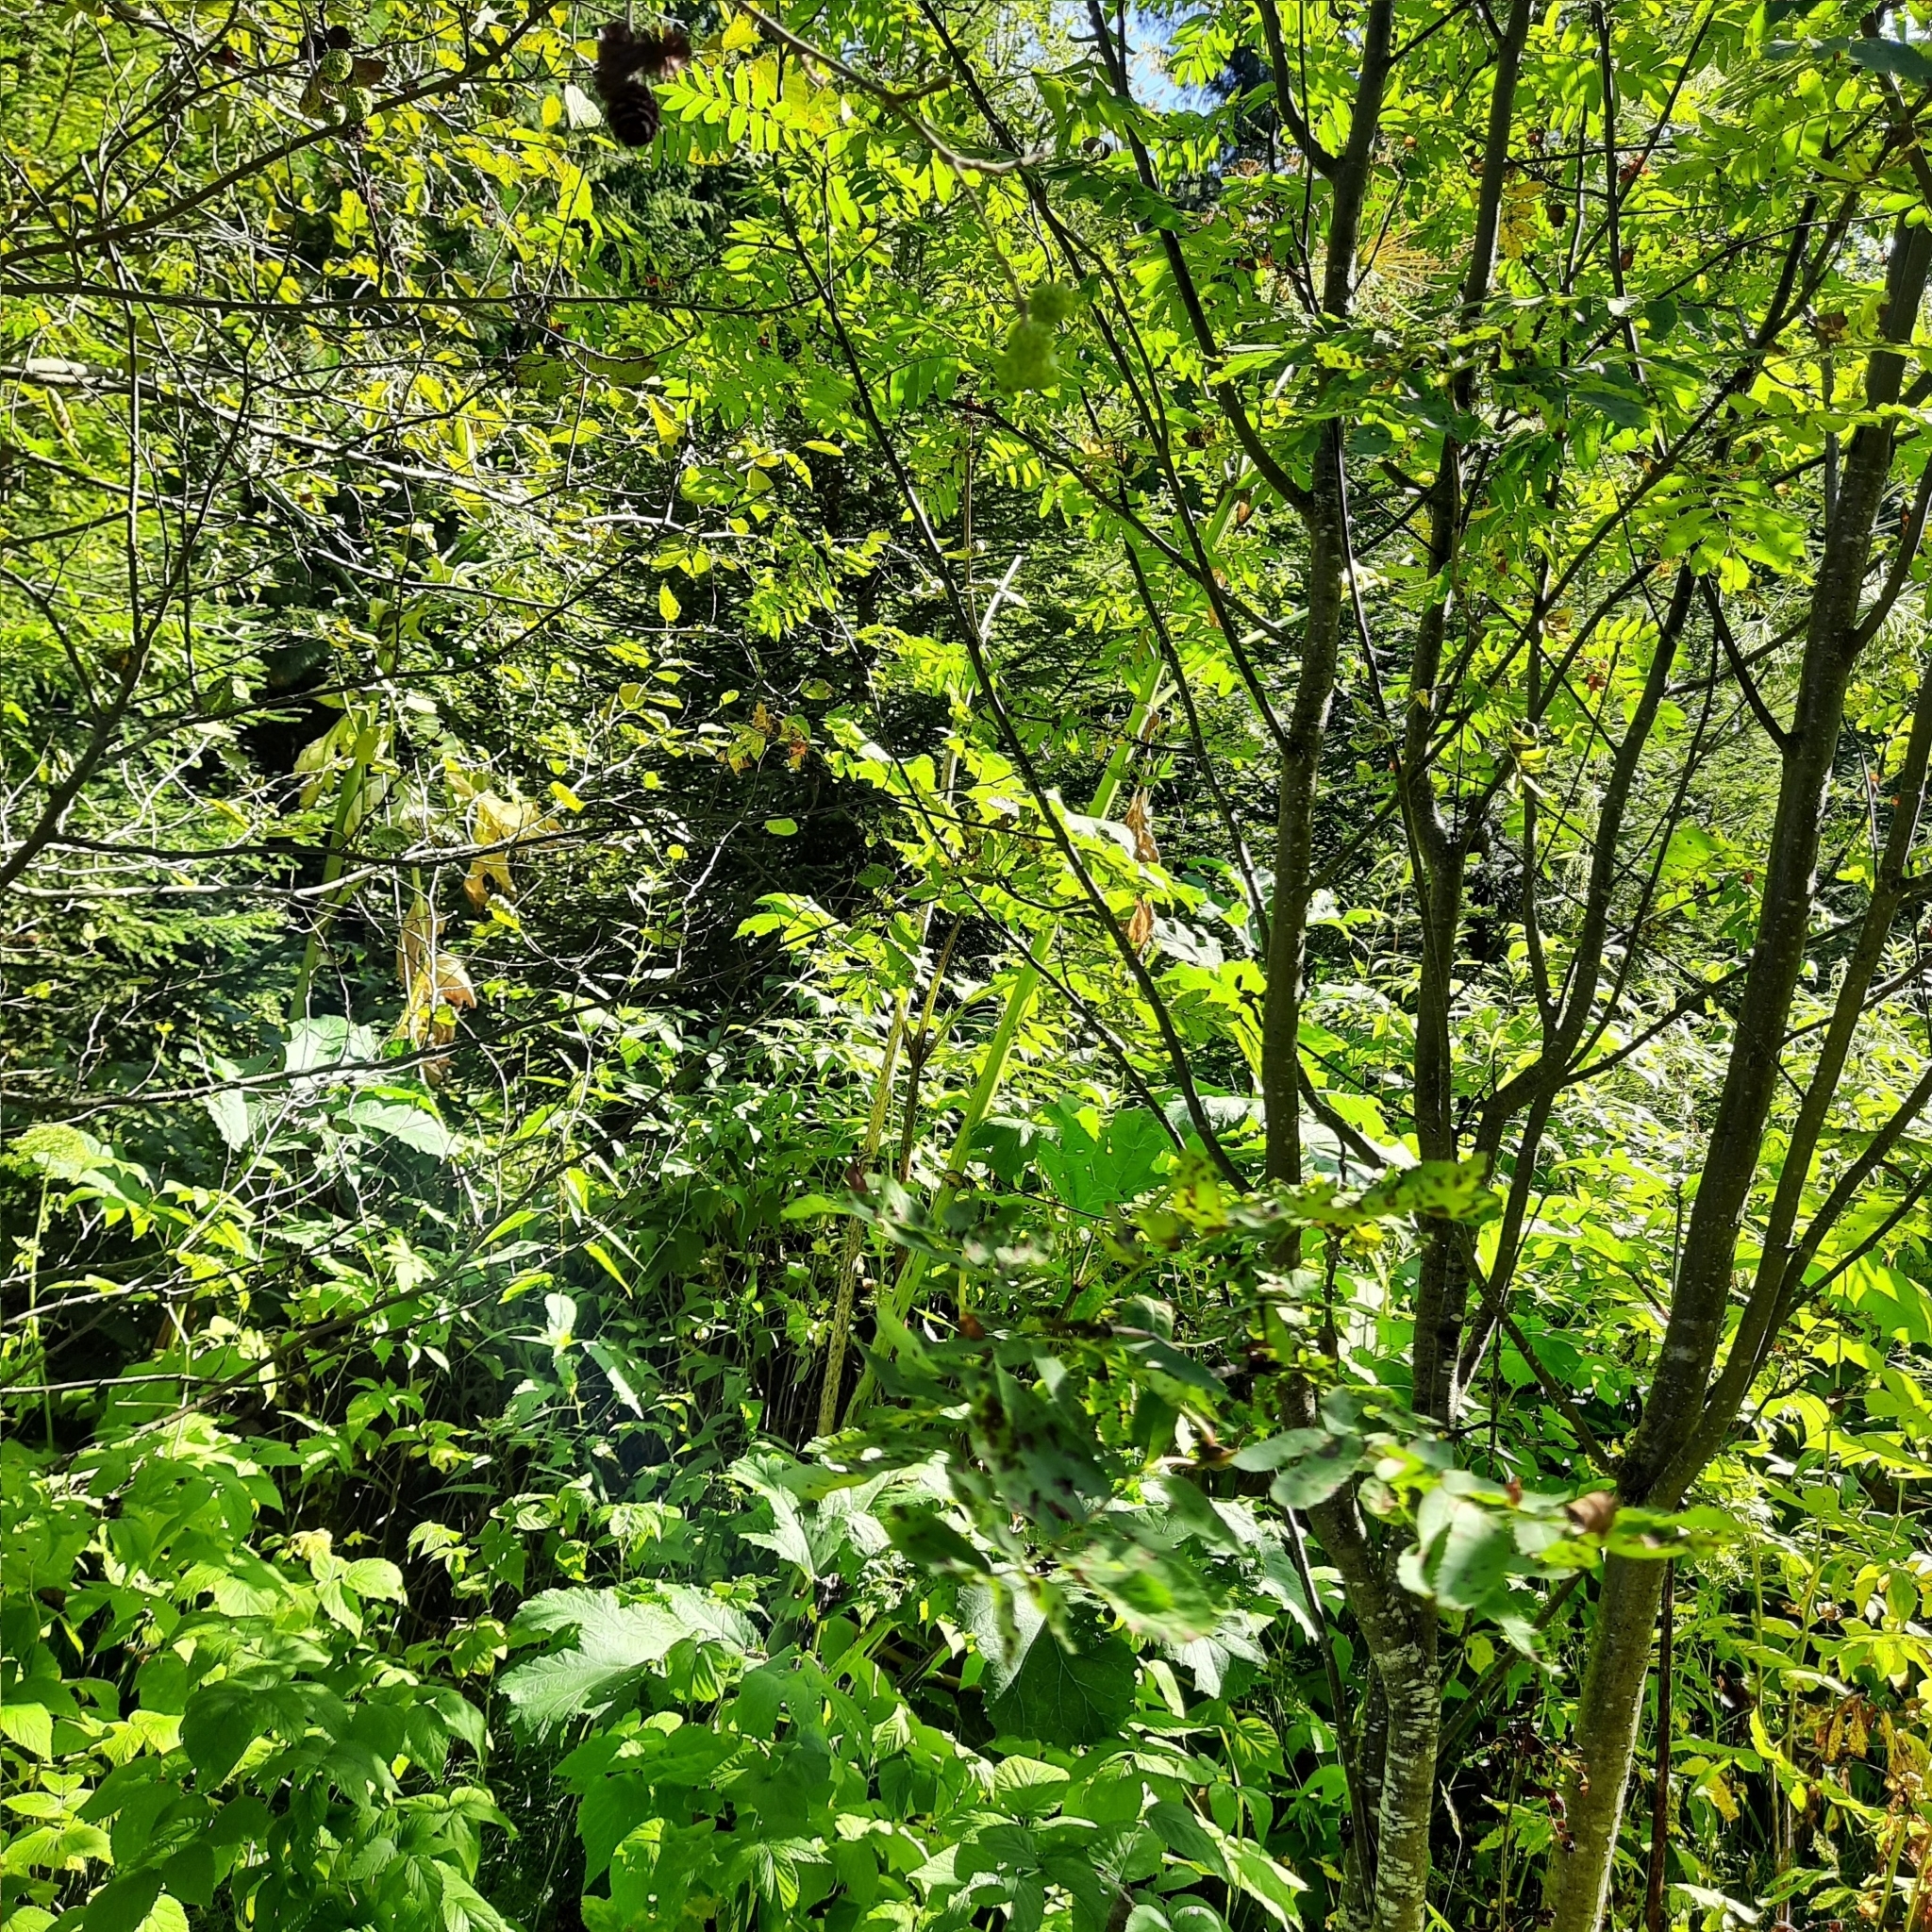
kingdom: Plantae
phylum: Tracheophyta
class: Magnoliopsida
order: Apiales
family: Apiaceae
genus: Heracleum
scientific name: Heracleum sosnowskyi
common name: Sosnowsky's hogweed
